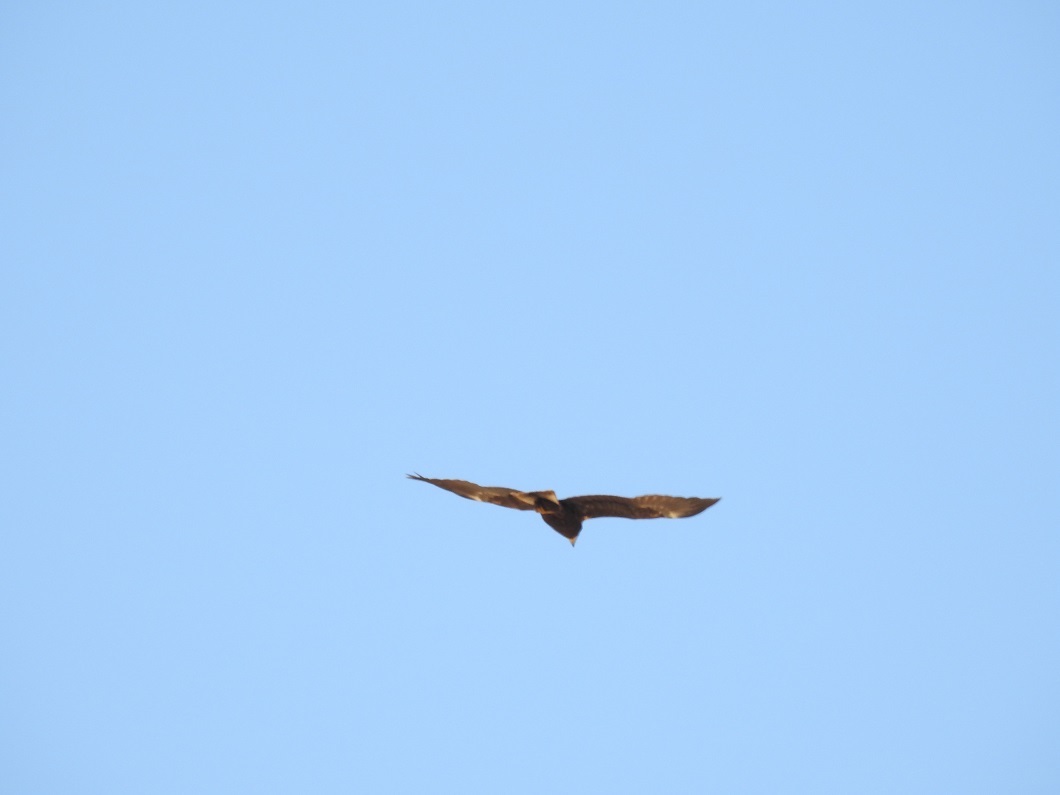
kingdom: Animalia
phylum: Chordata
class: Aves
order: Accipitriformes
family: Accipitridae
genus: Hieraaetus
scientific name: Hieraaetus pennatus
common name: Booted eagle
